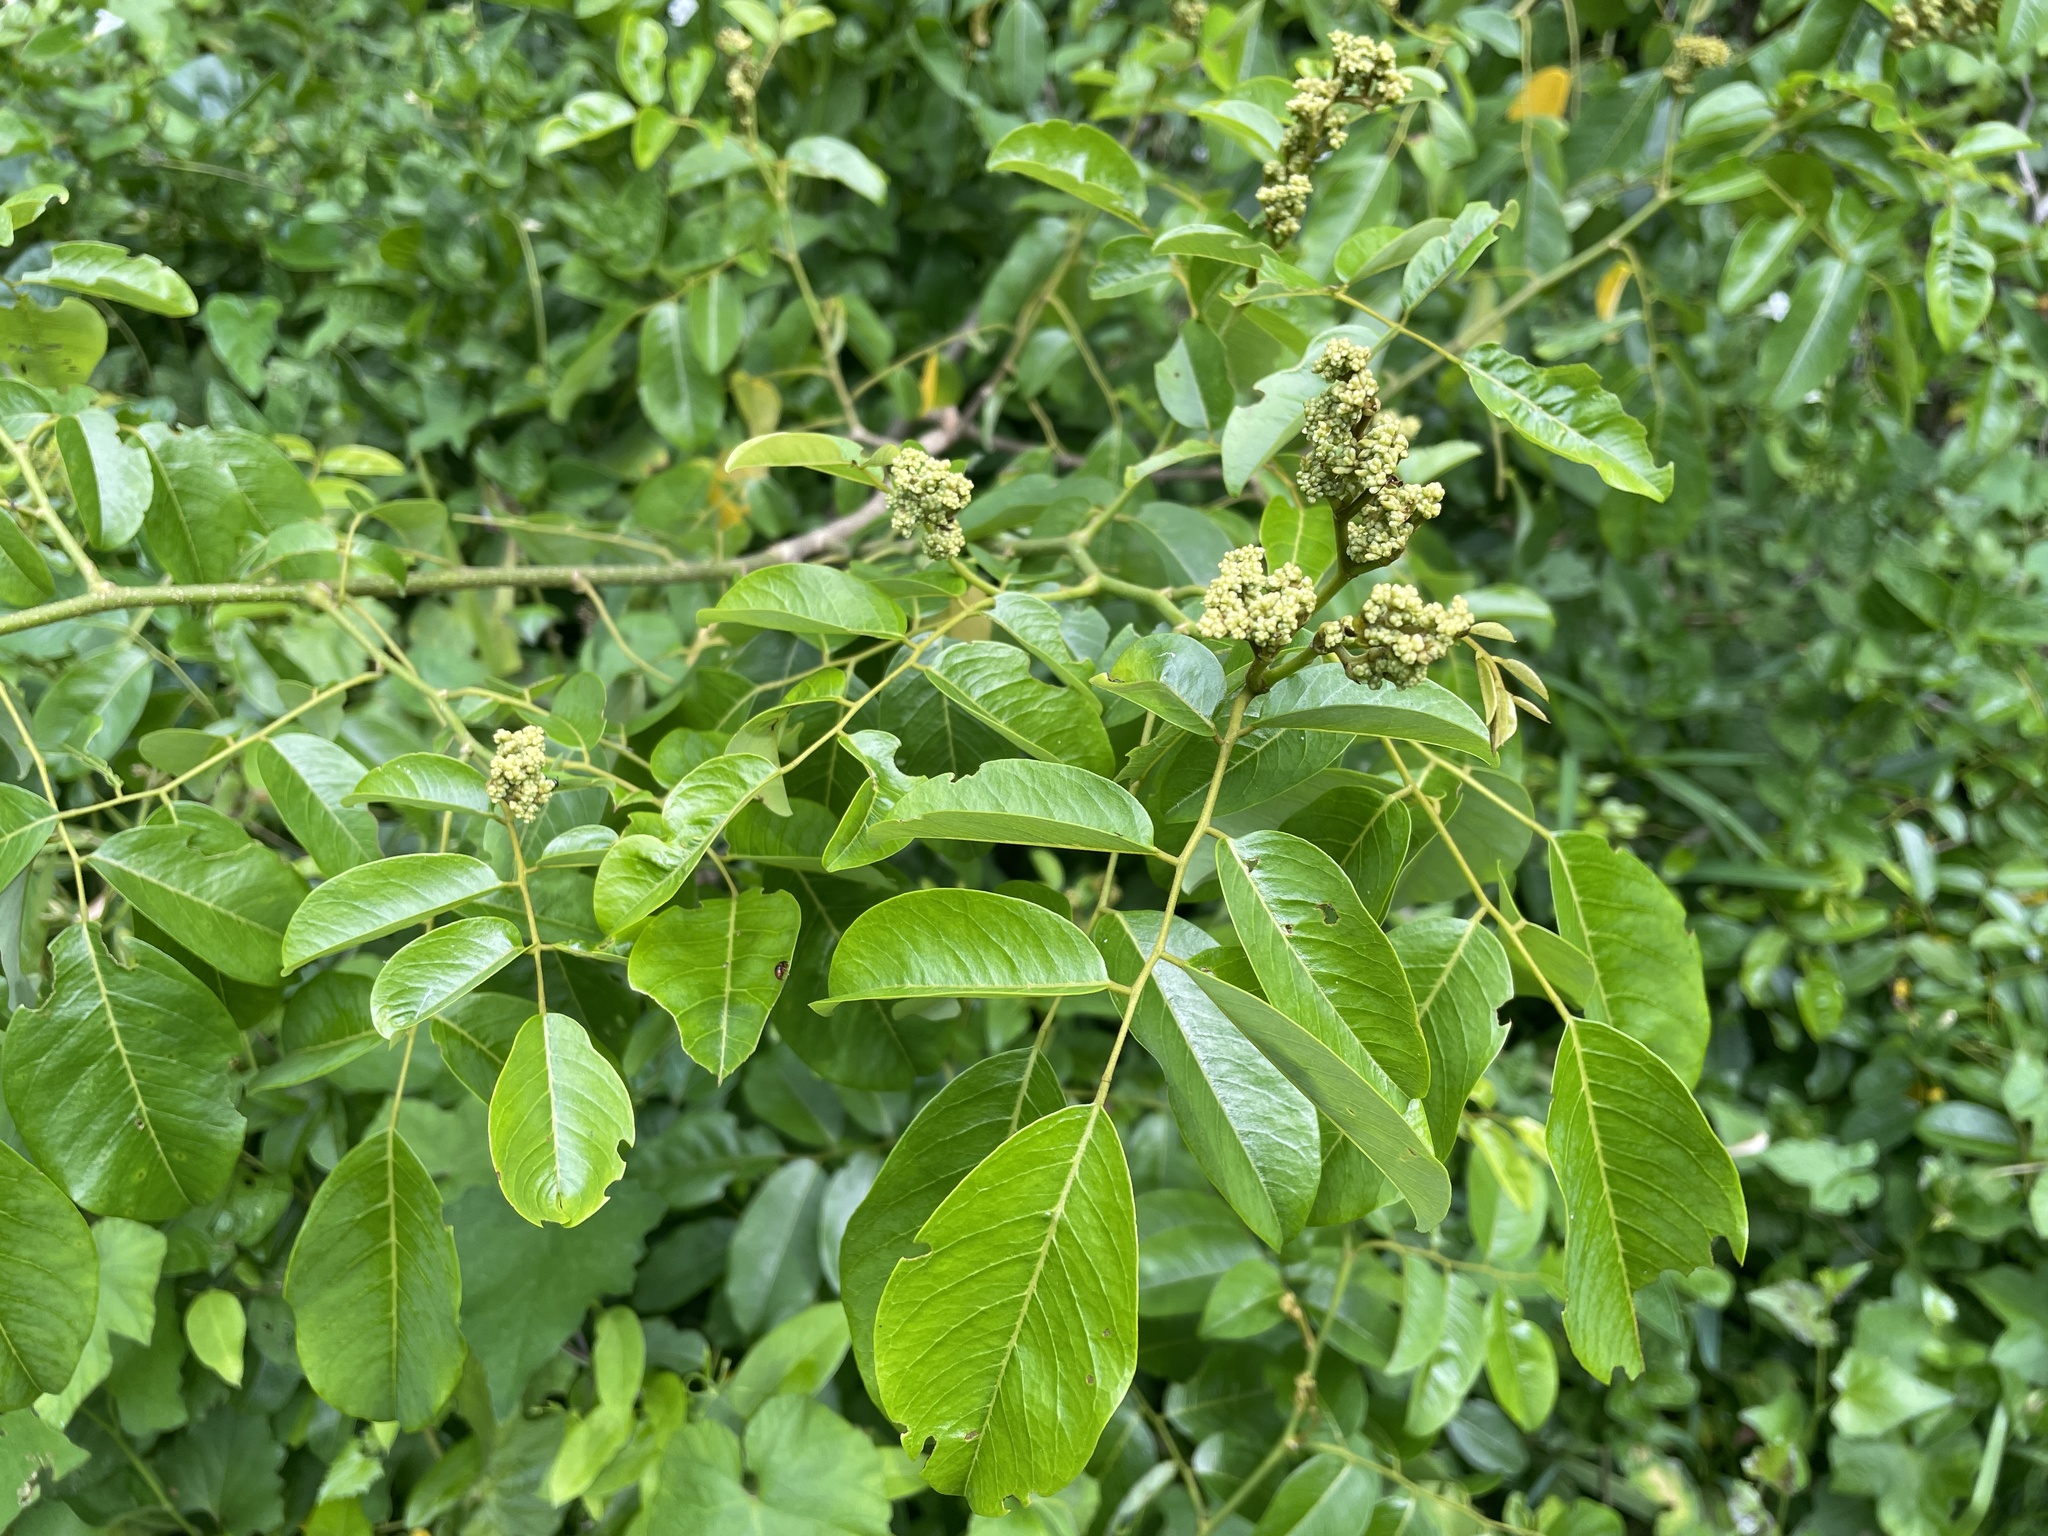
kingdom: Plantae
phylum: Tracheophyta
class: Magnoliopsida
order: Fabales
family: Fabaceae
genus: Dalbergia
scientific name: Dalbergia obovata
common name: Climbing flat-bean
